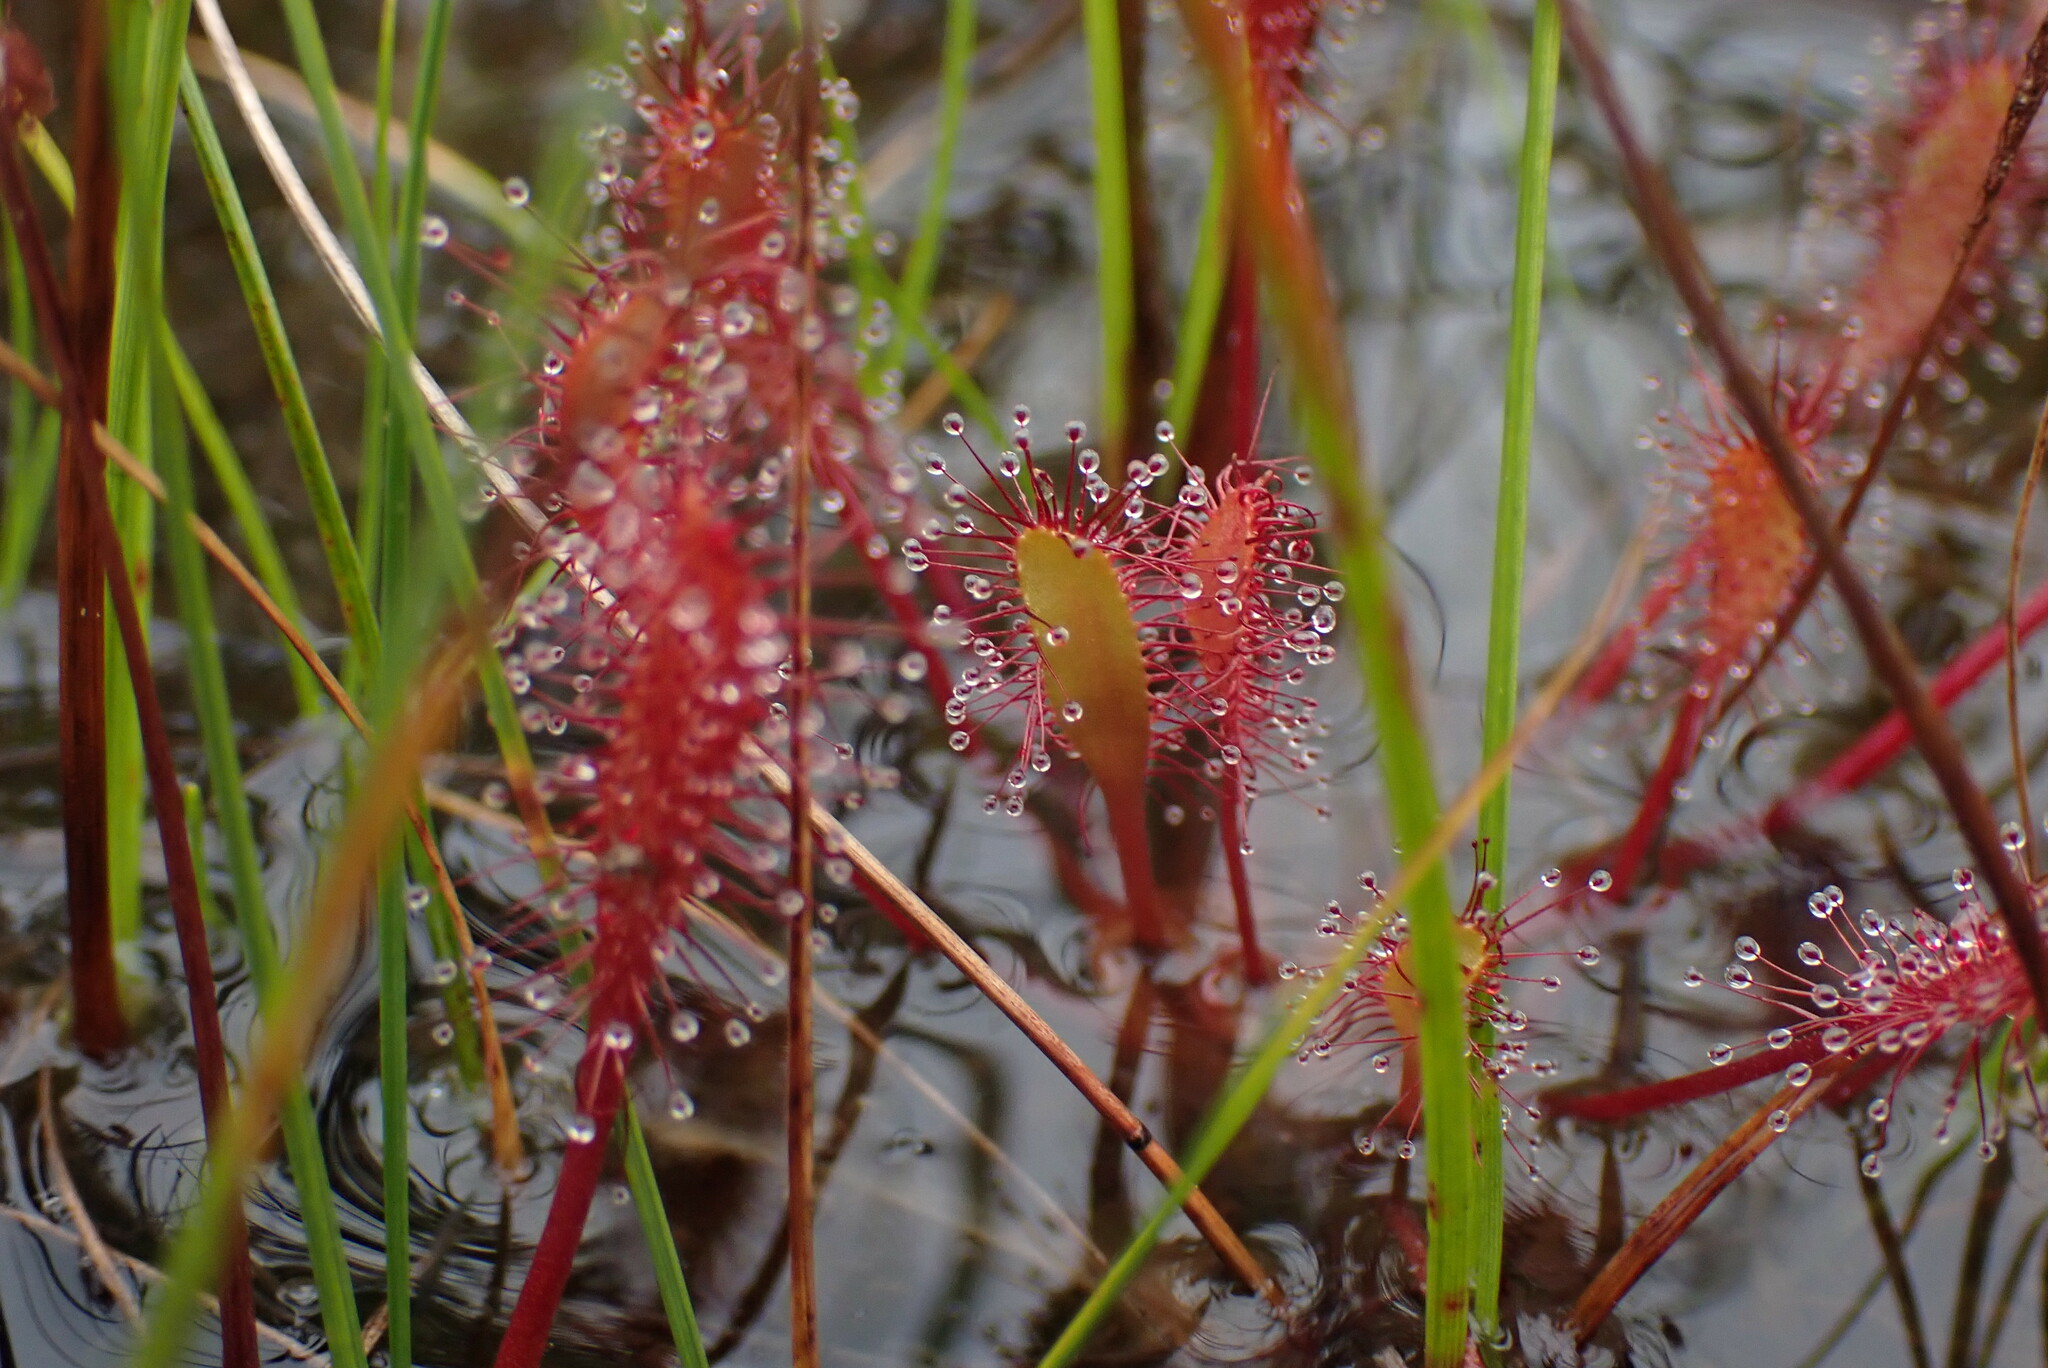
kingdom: Plantae
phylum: Tracheophyta
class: Magnoliopsida
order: Caryophyllales
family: Droseraceae
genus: Drosera
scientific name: Drosera anglica
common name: Great sundew
